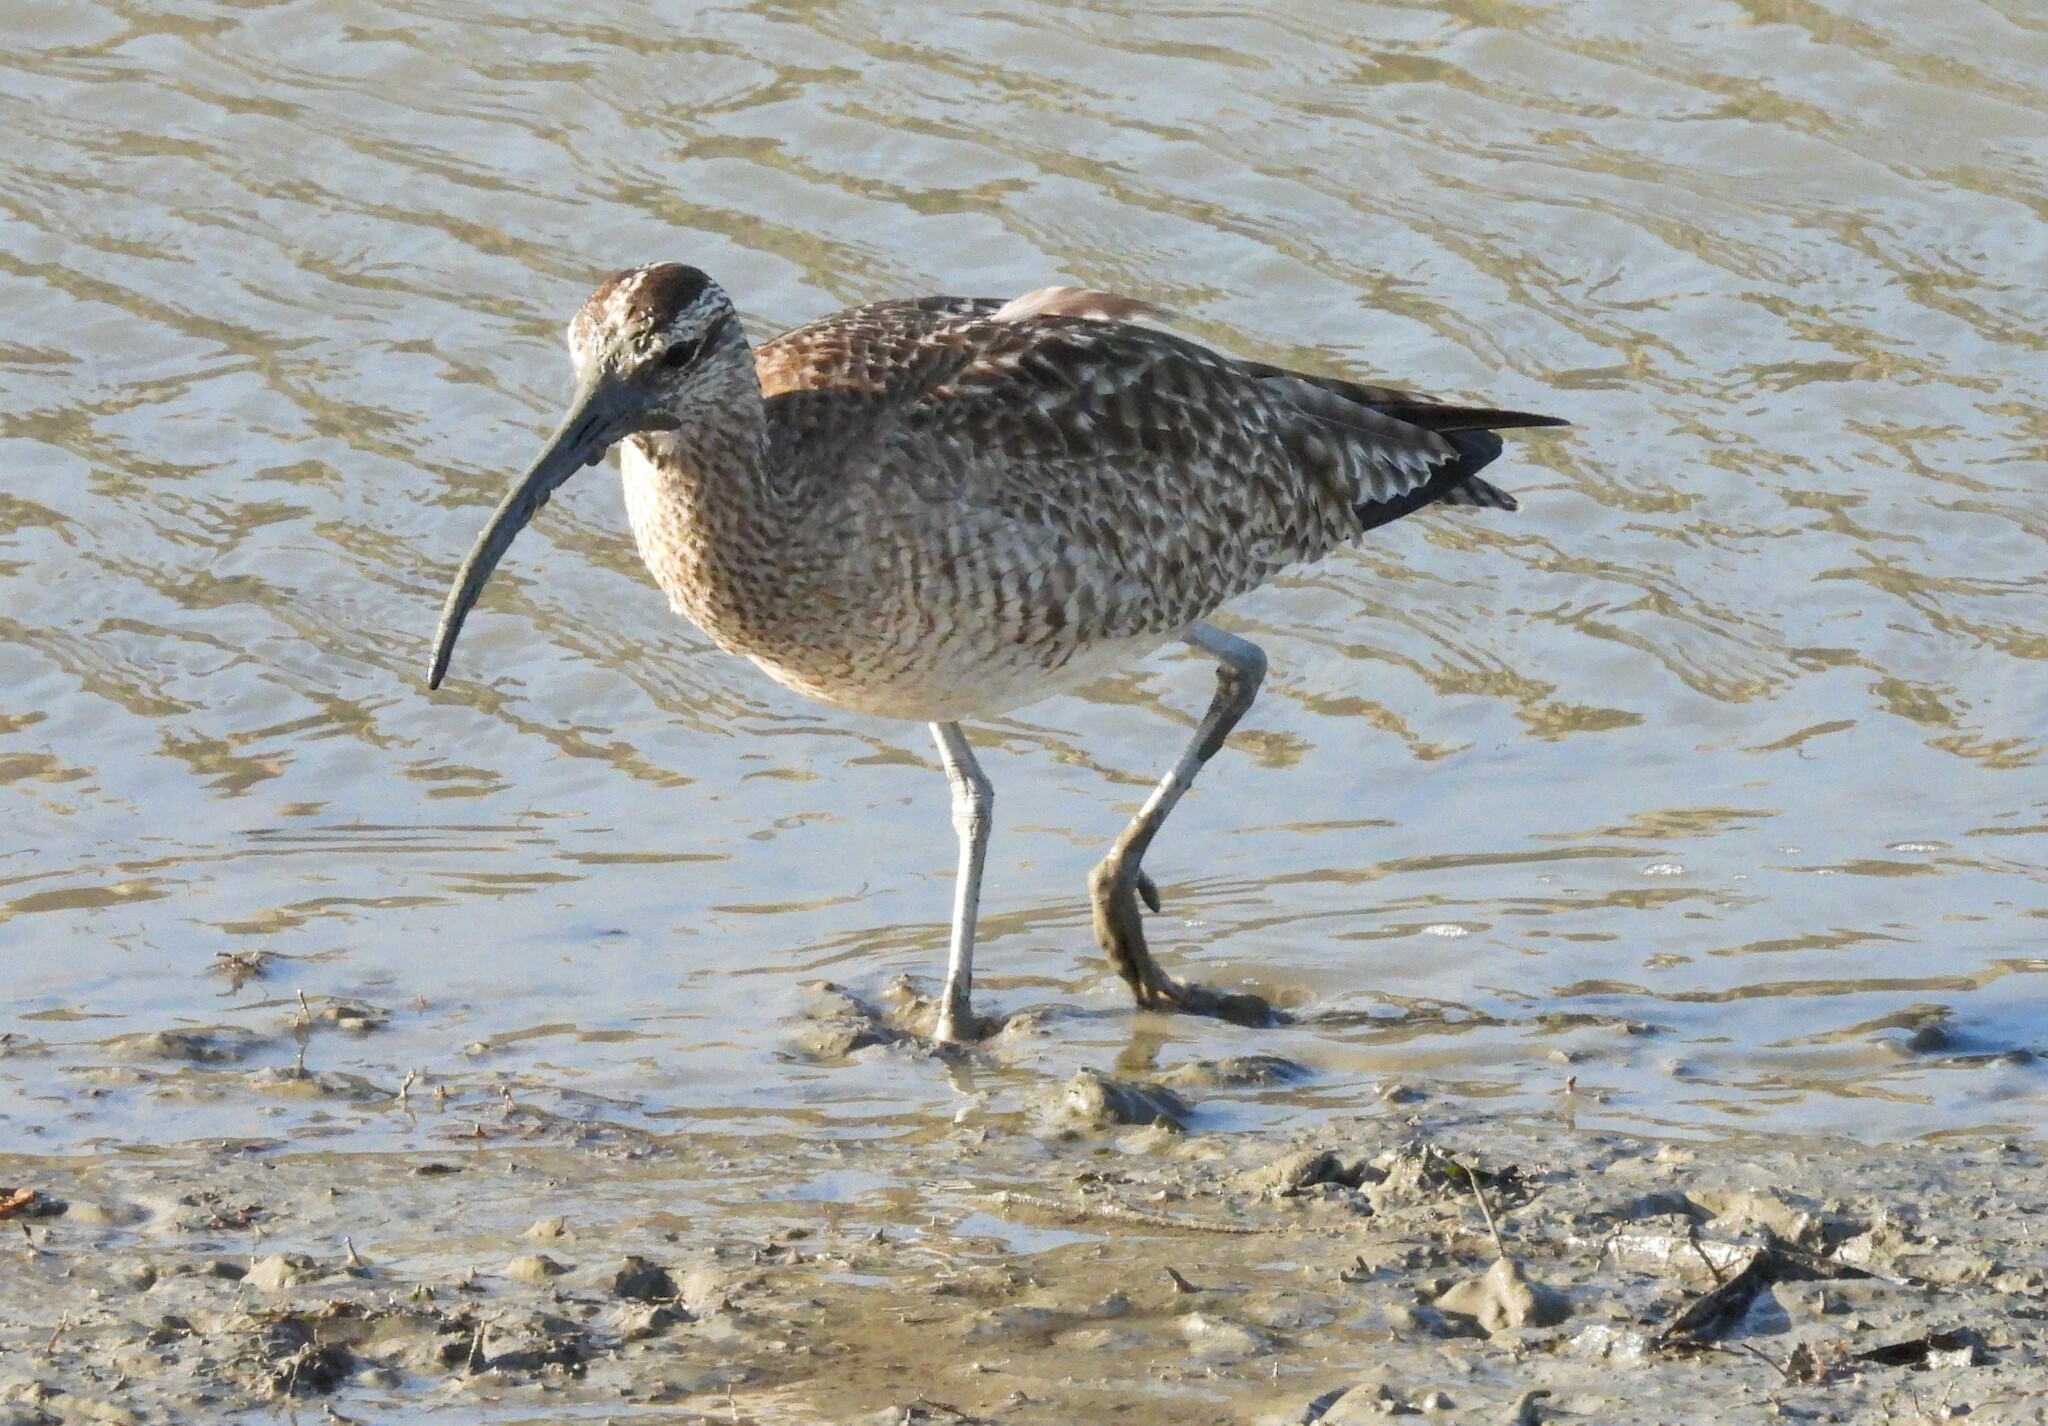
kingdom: Animalia
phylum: Chordata
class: Aves
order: Charadriiformes
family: Scolopacidae
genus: Numenius
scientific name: Numenius phaeopus
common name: Whimbrel
